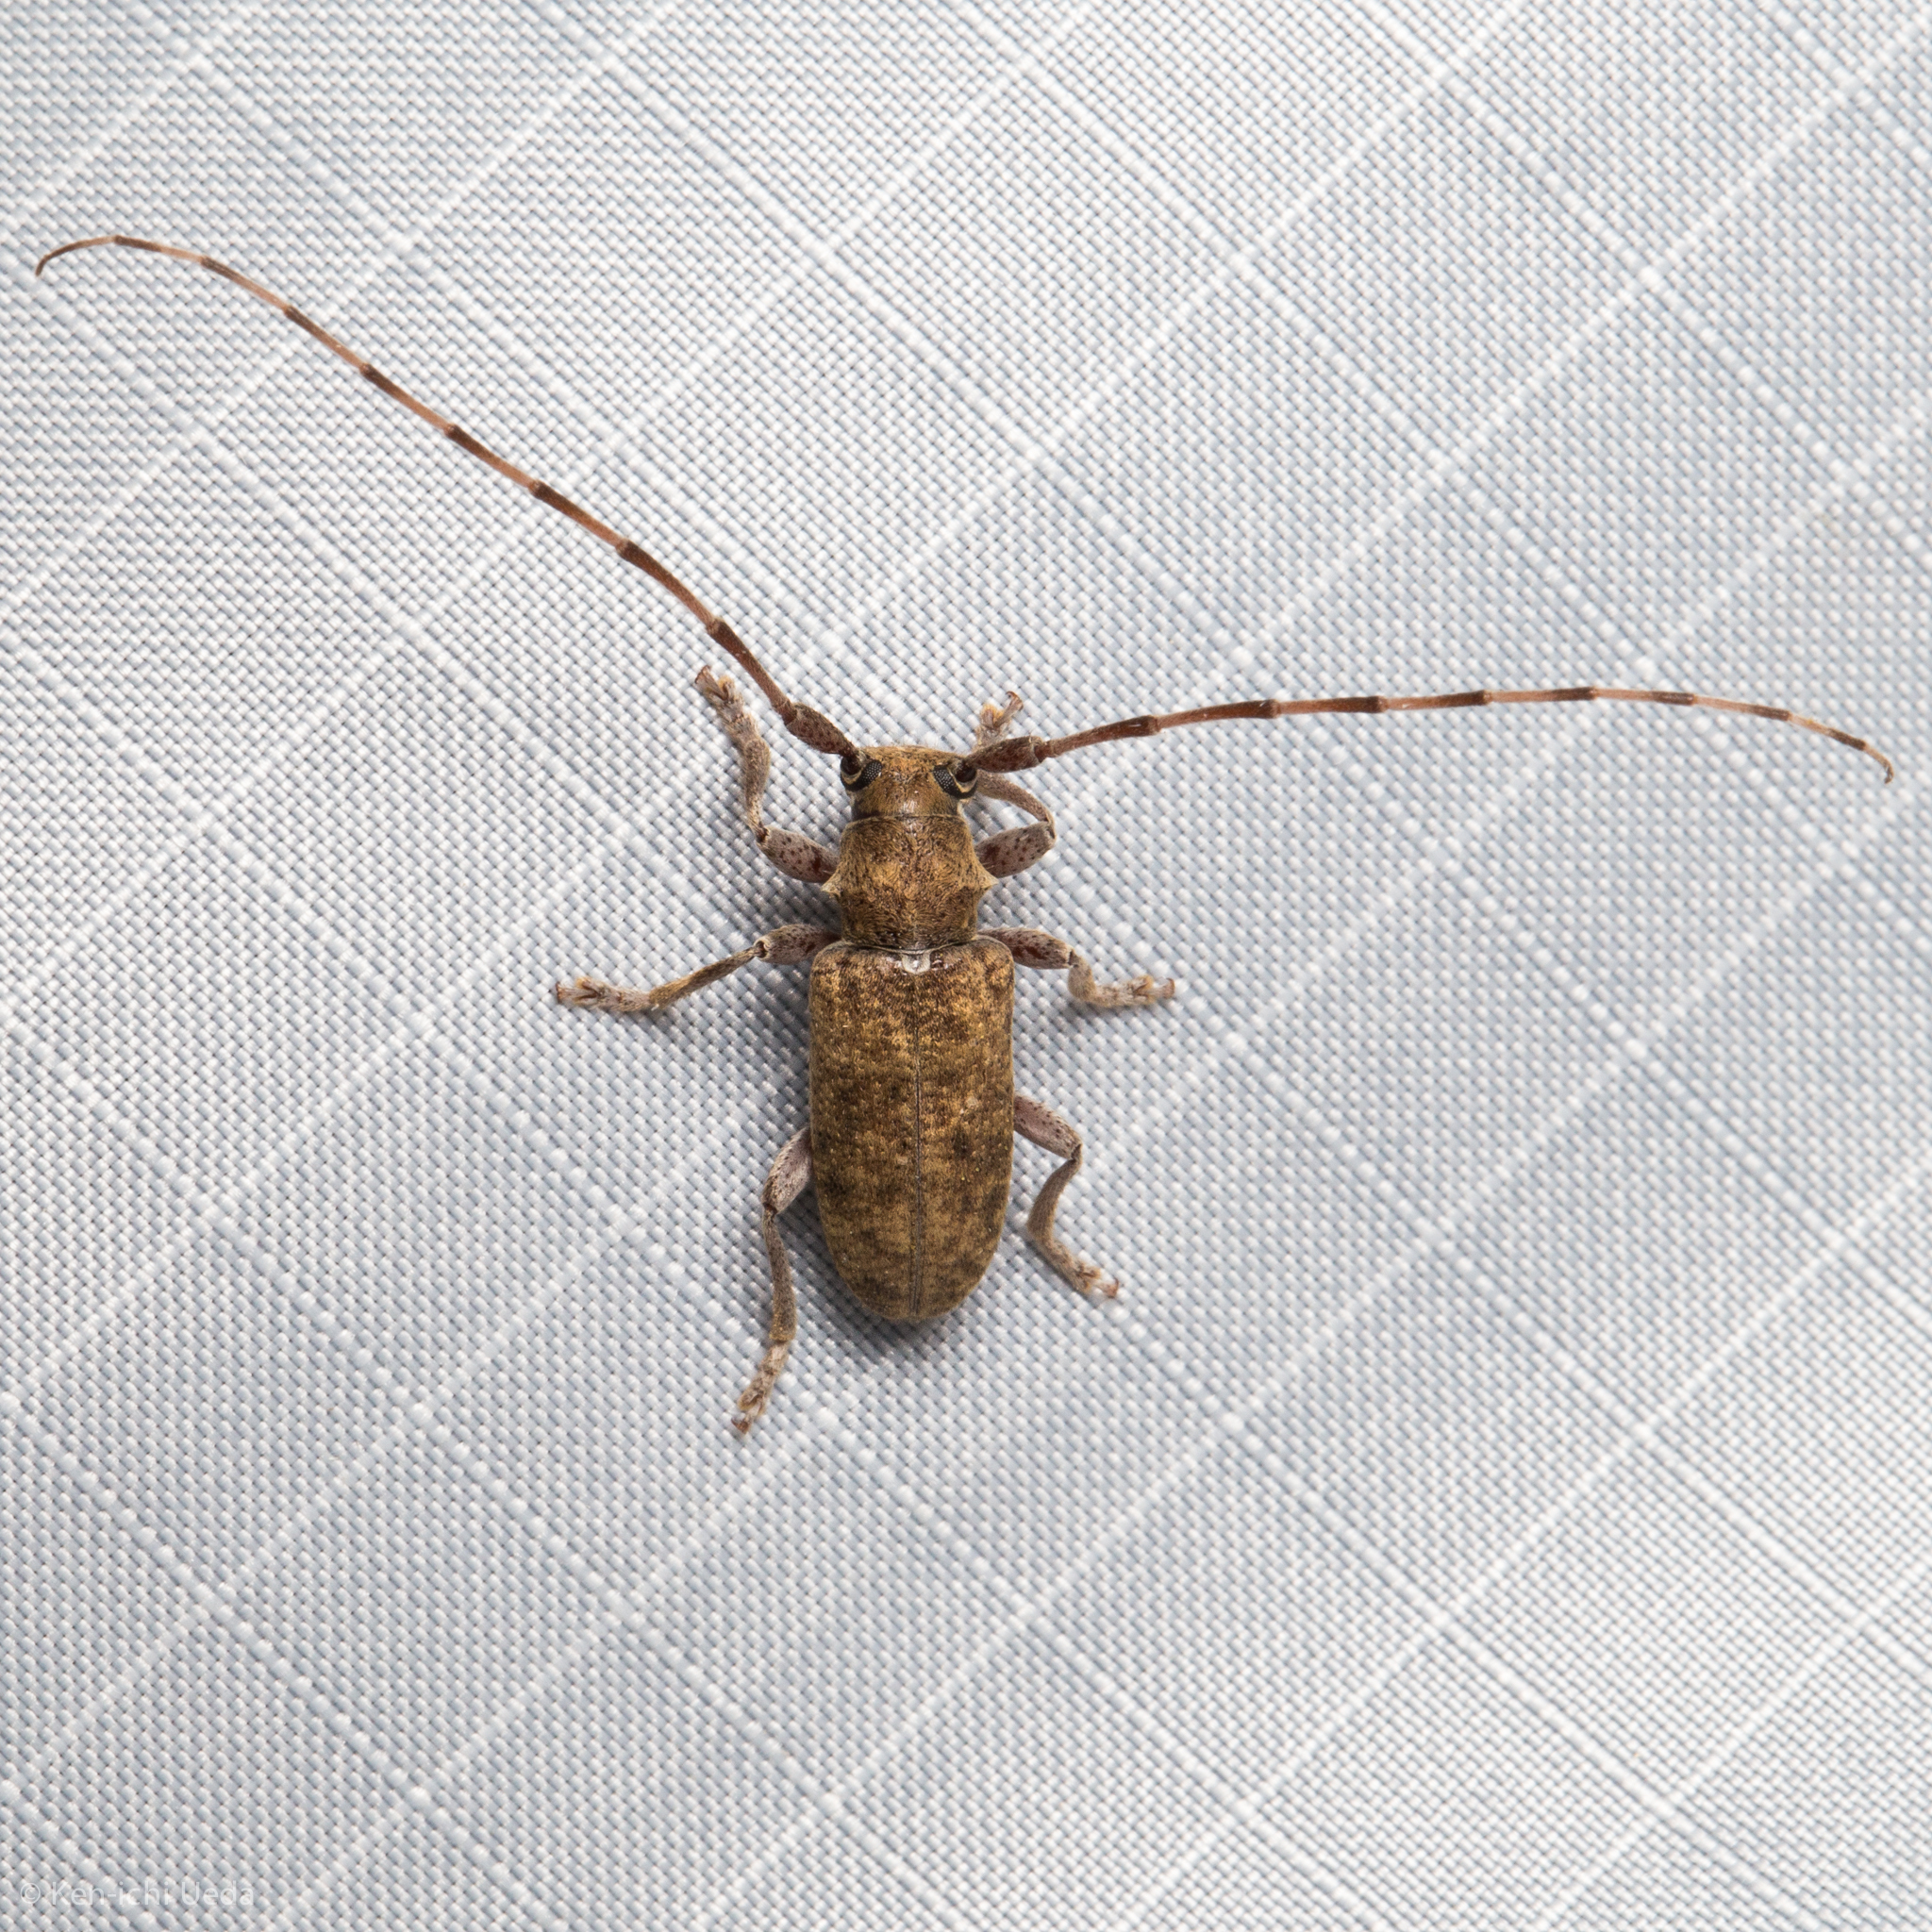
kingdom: Animalia
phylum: Arthropoda
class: Insecta
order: Coleoptera
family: Cerambycidae
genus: Estoloides
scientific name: Estoloides sordida
